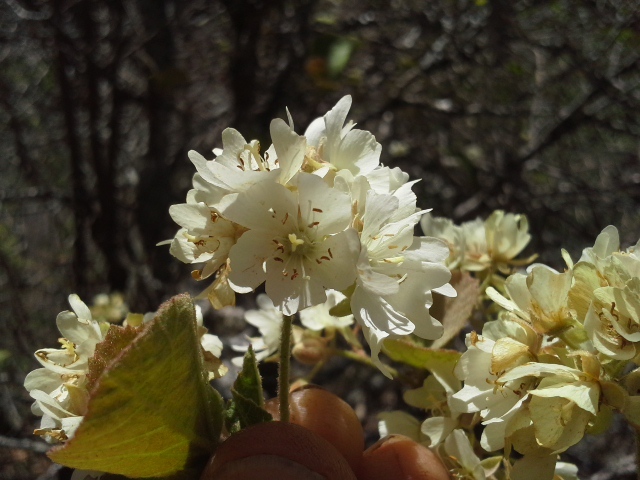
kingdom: Plantae
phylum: Tracheophyta
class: Magnoliopsida
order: Malvales
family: Malvaceae
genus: Dombeya
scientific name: Dombeya rotundifolia
